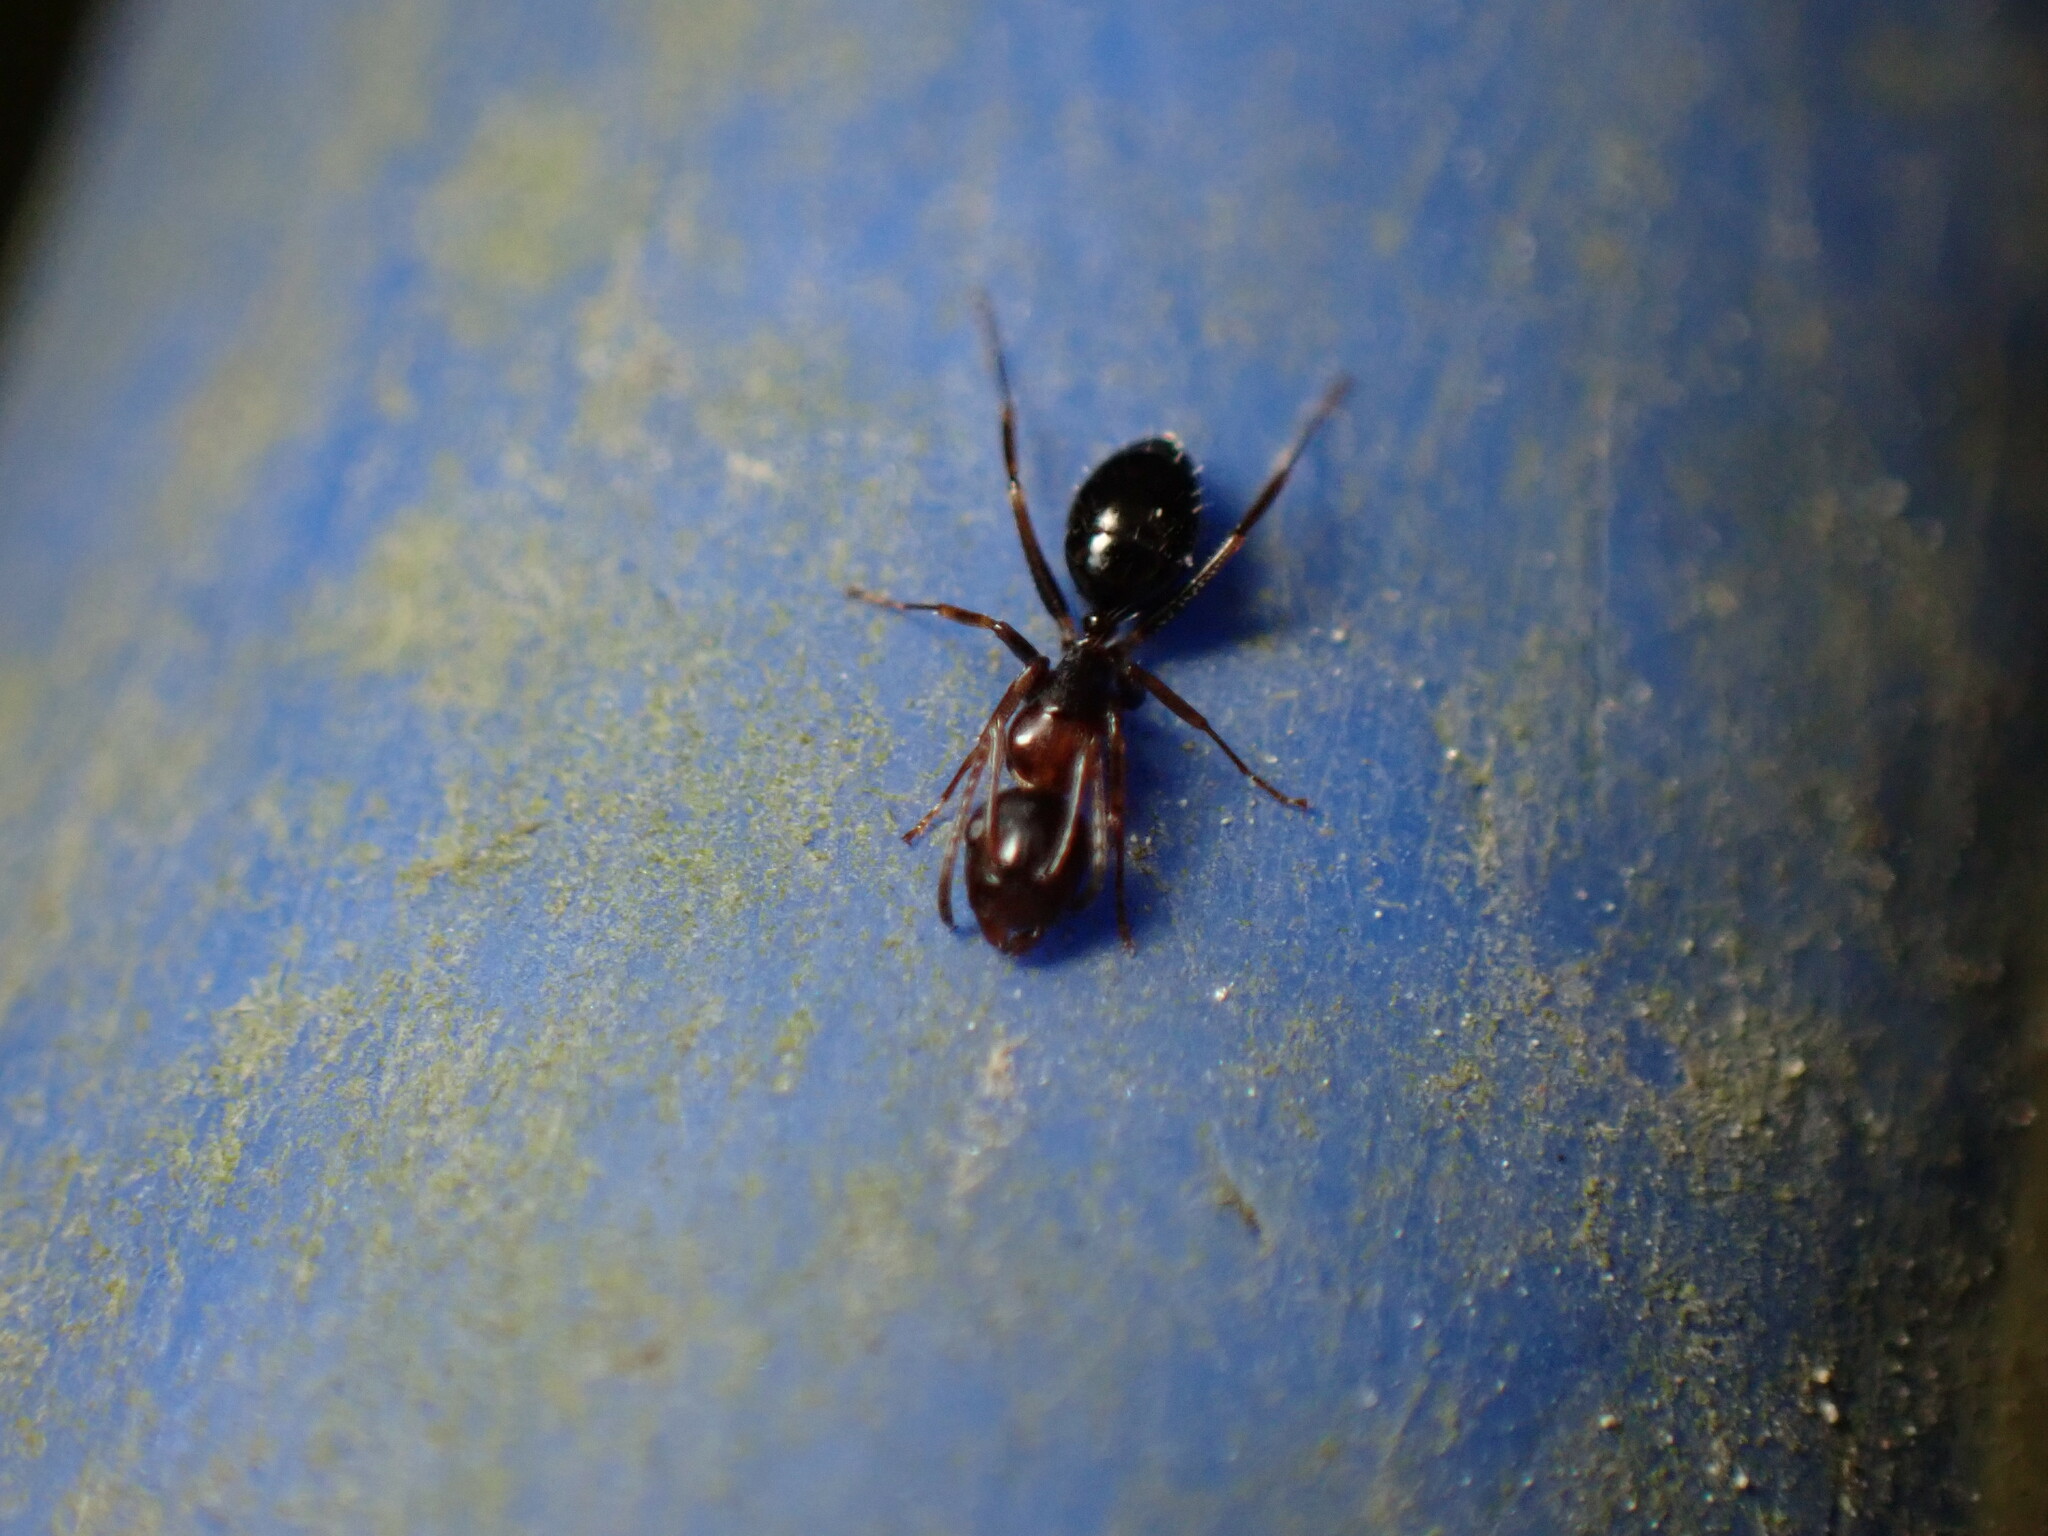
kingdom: Animalia
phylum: Arthropoda
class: Insecta
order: Hymenoptera
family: Formicidae
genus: Camponotus
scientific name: Camponotus vitiosus
